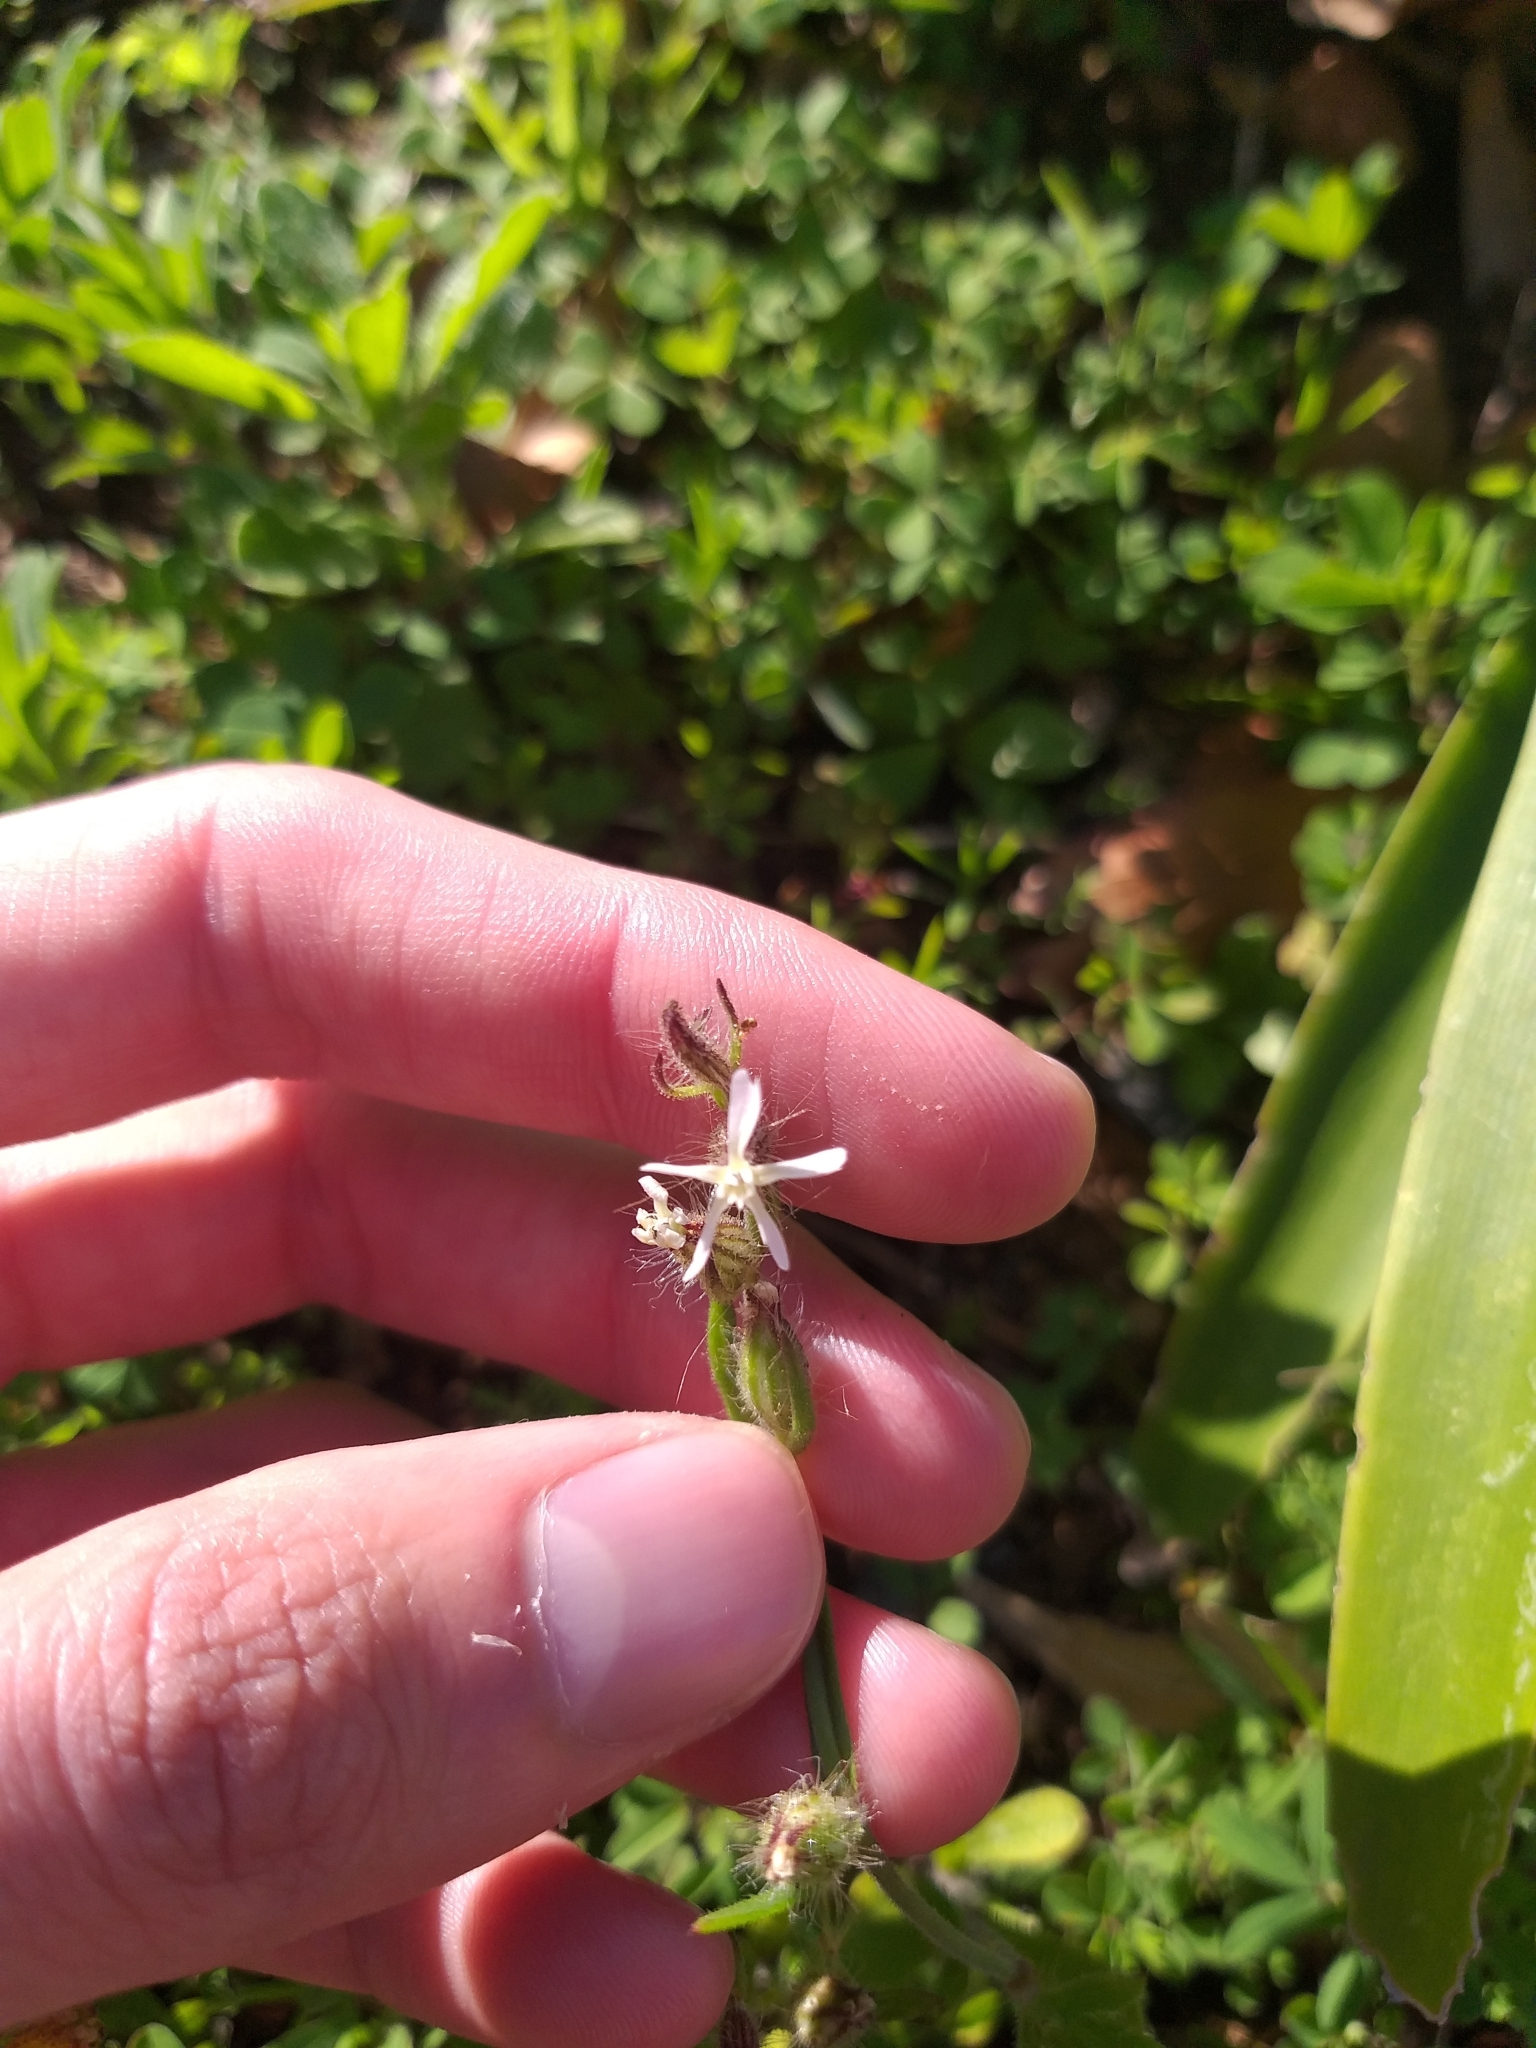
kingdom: Plantae
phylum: Tracheophyta
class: Magnoliopsida
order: Caryophyllales
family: Caryophyllaceae
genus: Silene
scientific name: Silene gallica
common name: Small-flowered catchfly
